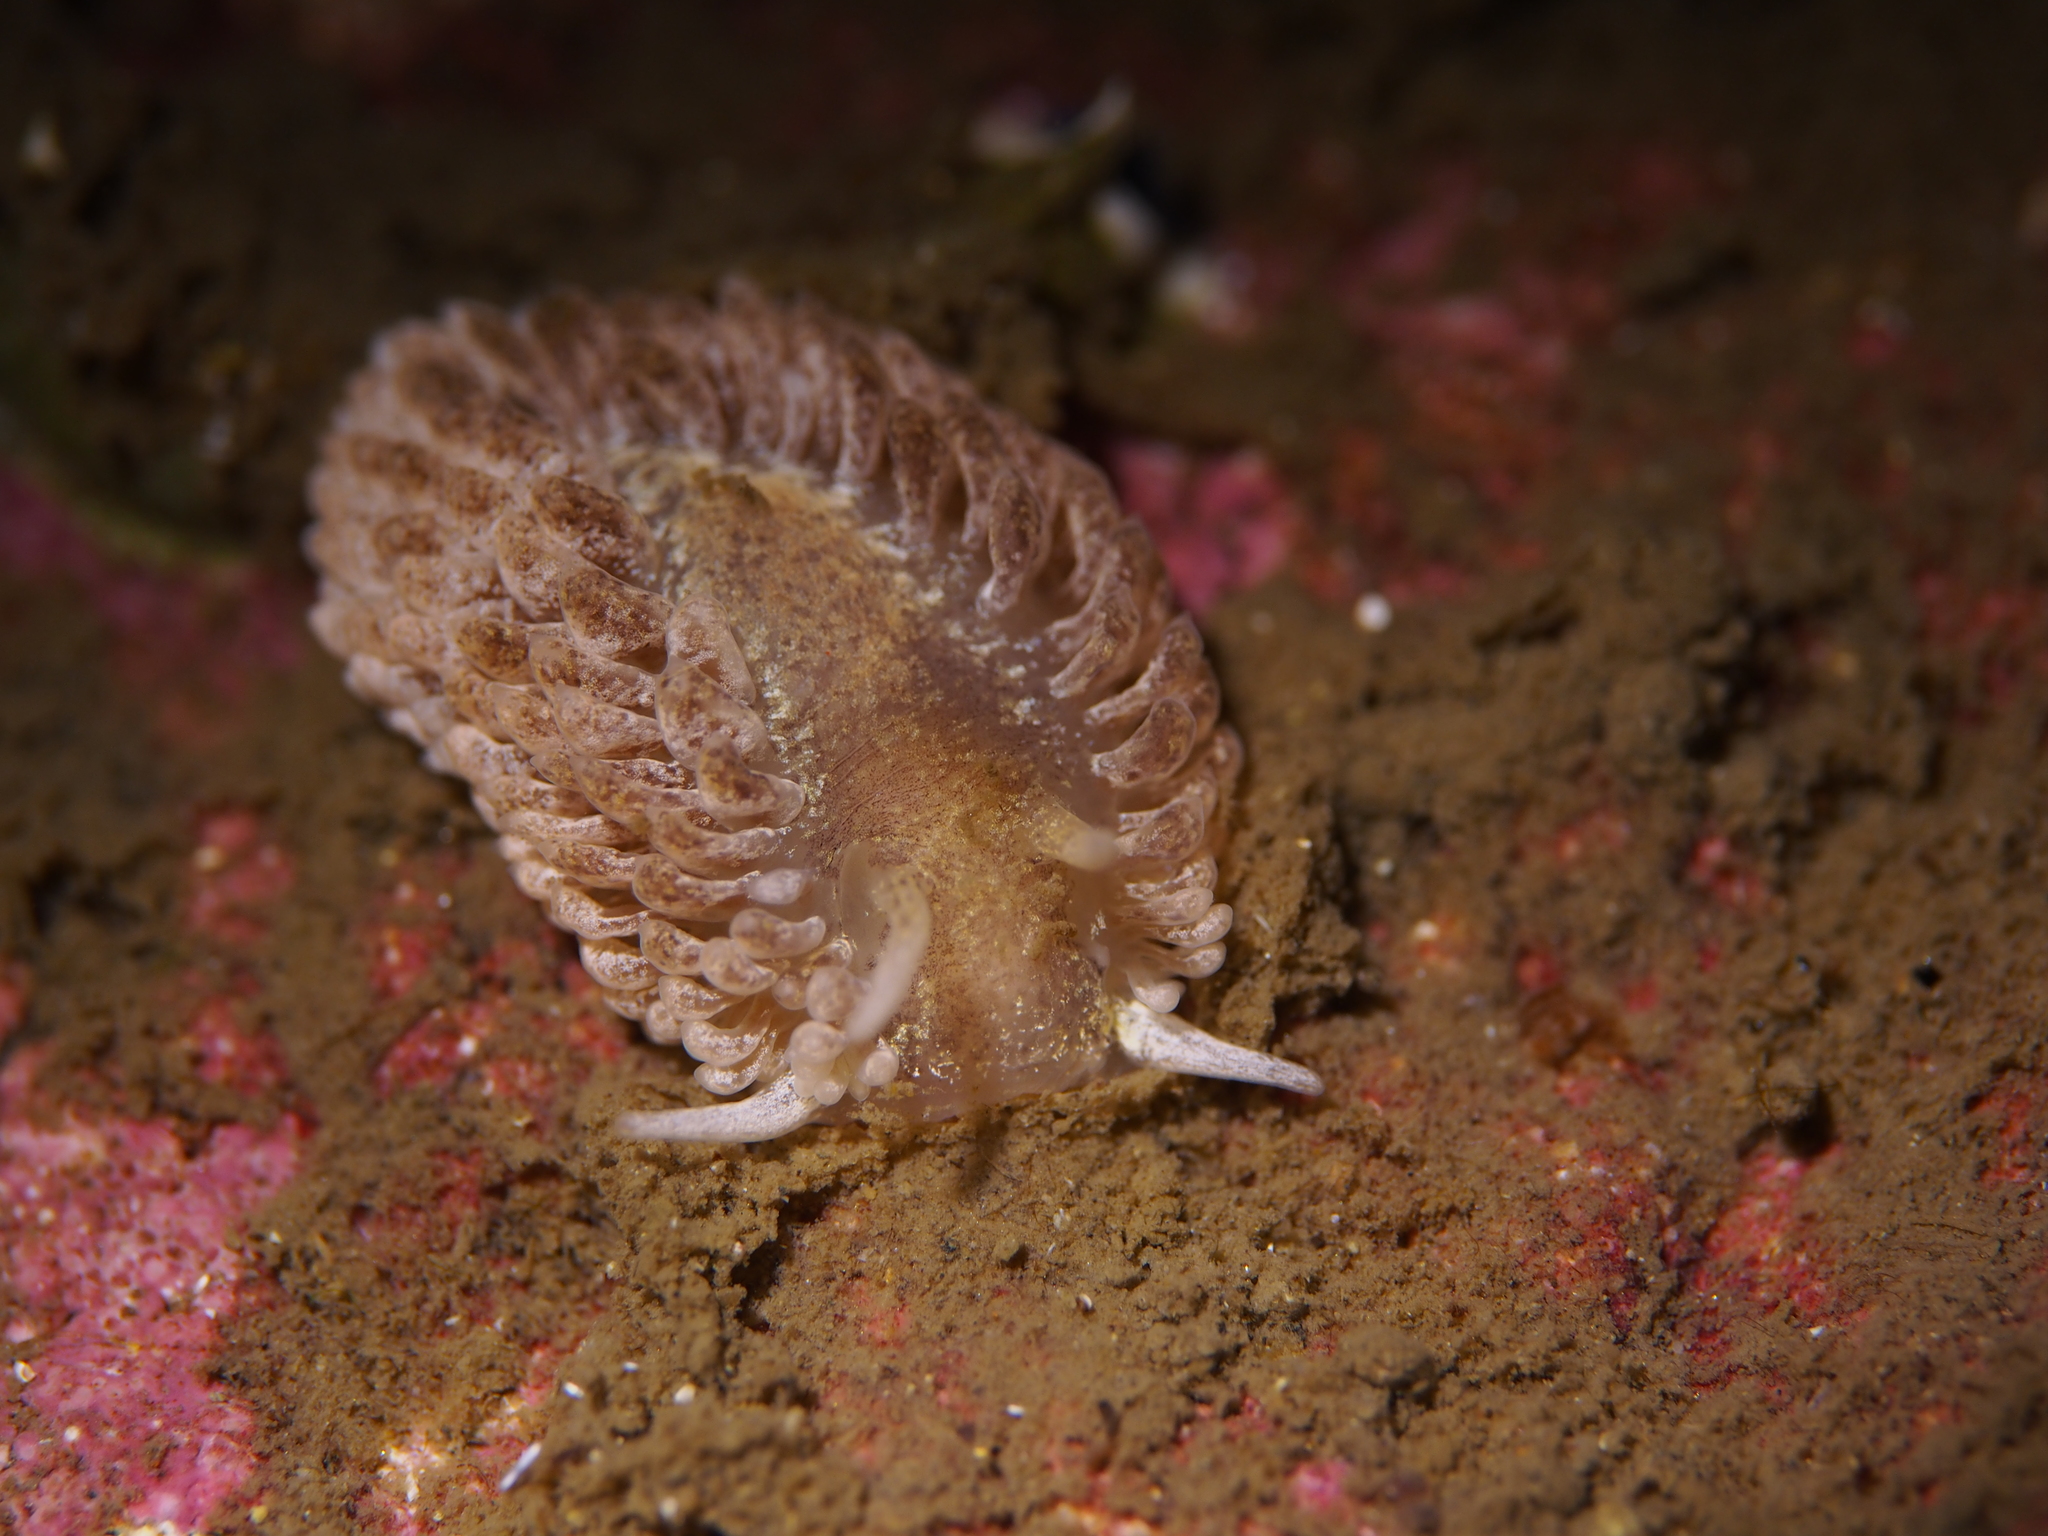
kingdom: Animalia
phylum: Mollusca
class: Gastropoda
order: Nudibranchia
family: Aeolidiidae
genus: Aeolidia
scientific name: Aeolidia papillosa
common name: Common grey sea slug
